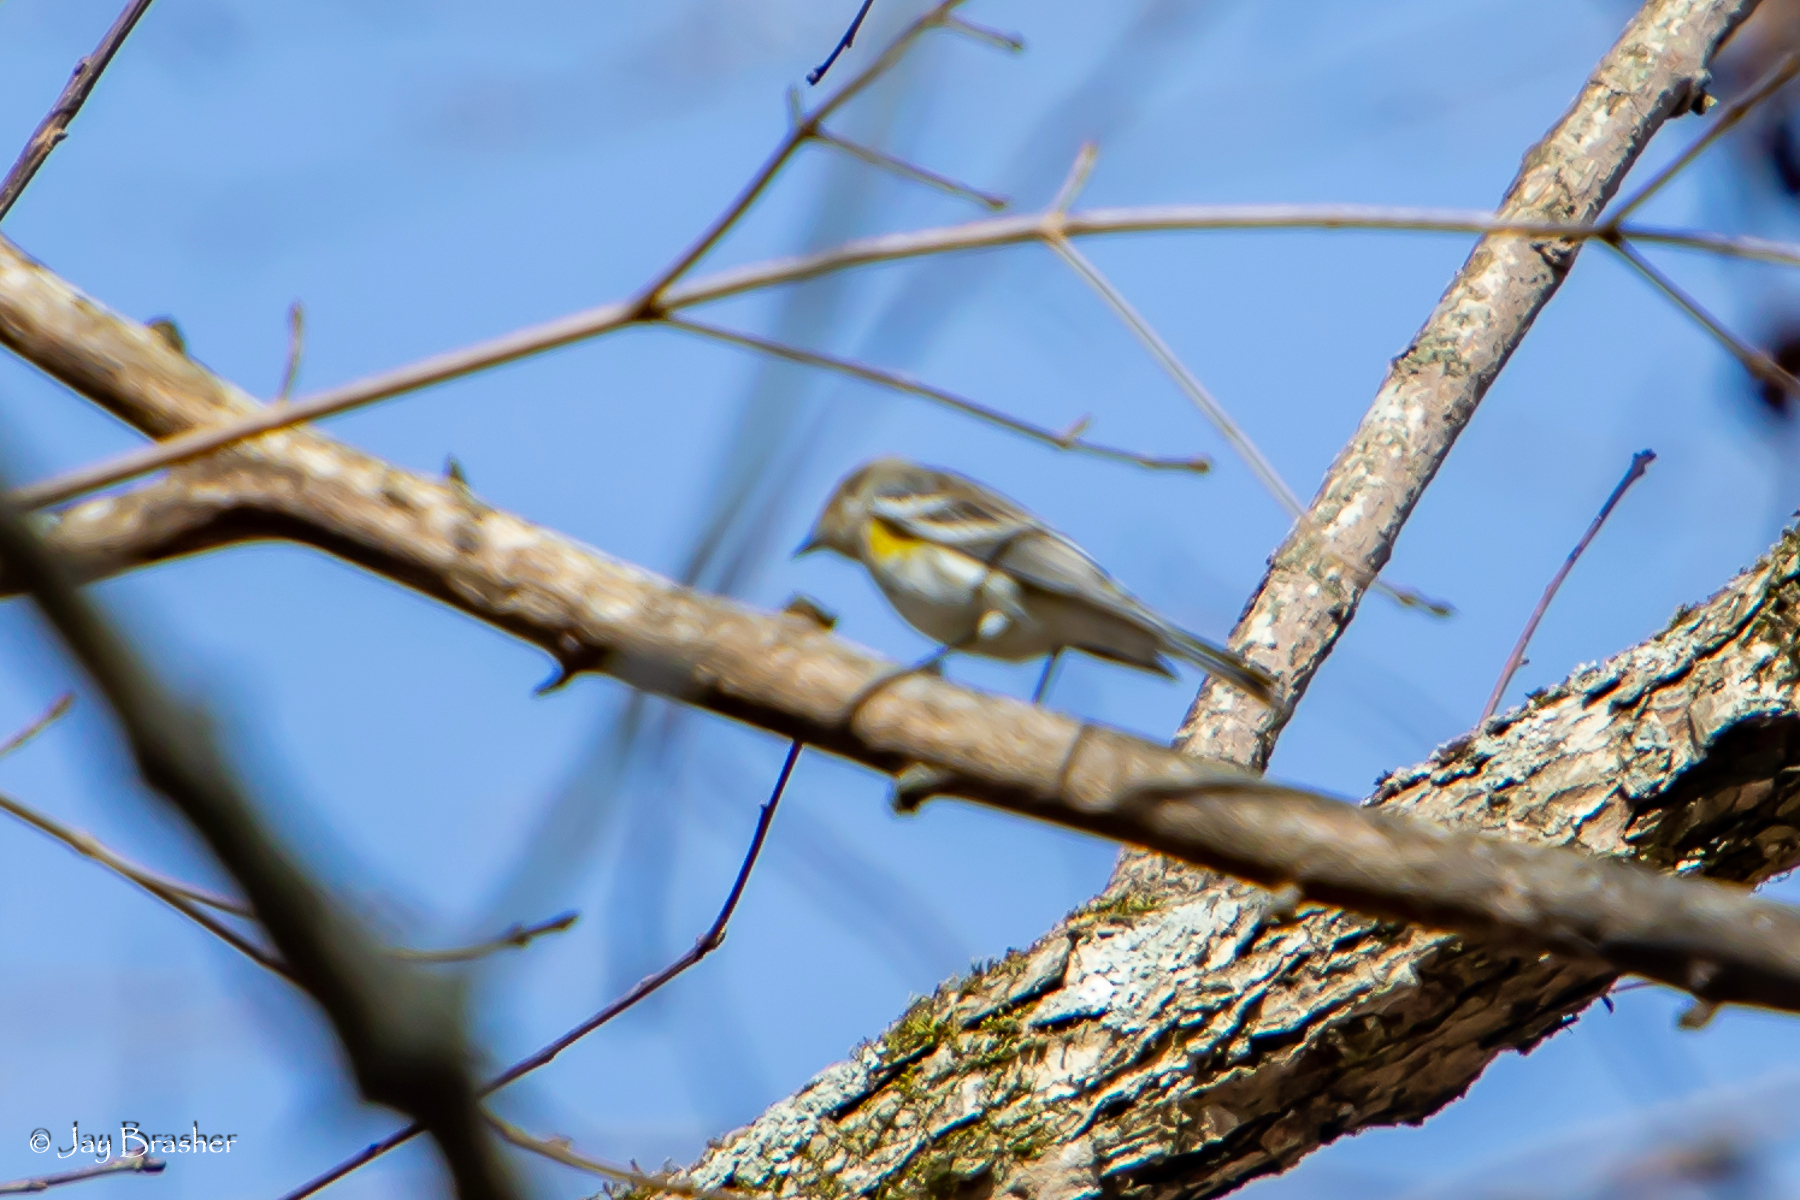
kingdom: Animalia
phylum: Chordata
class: Aves
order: Passeriformes
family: Parulidae
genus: Setophaga
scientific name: Setophaga coronata
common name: Myrtle warbler
